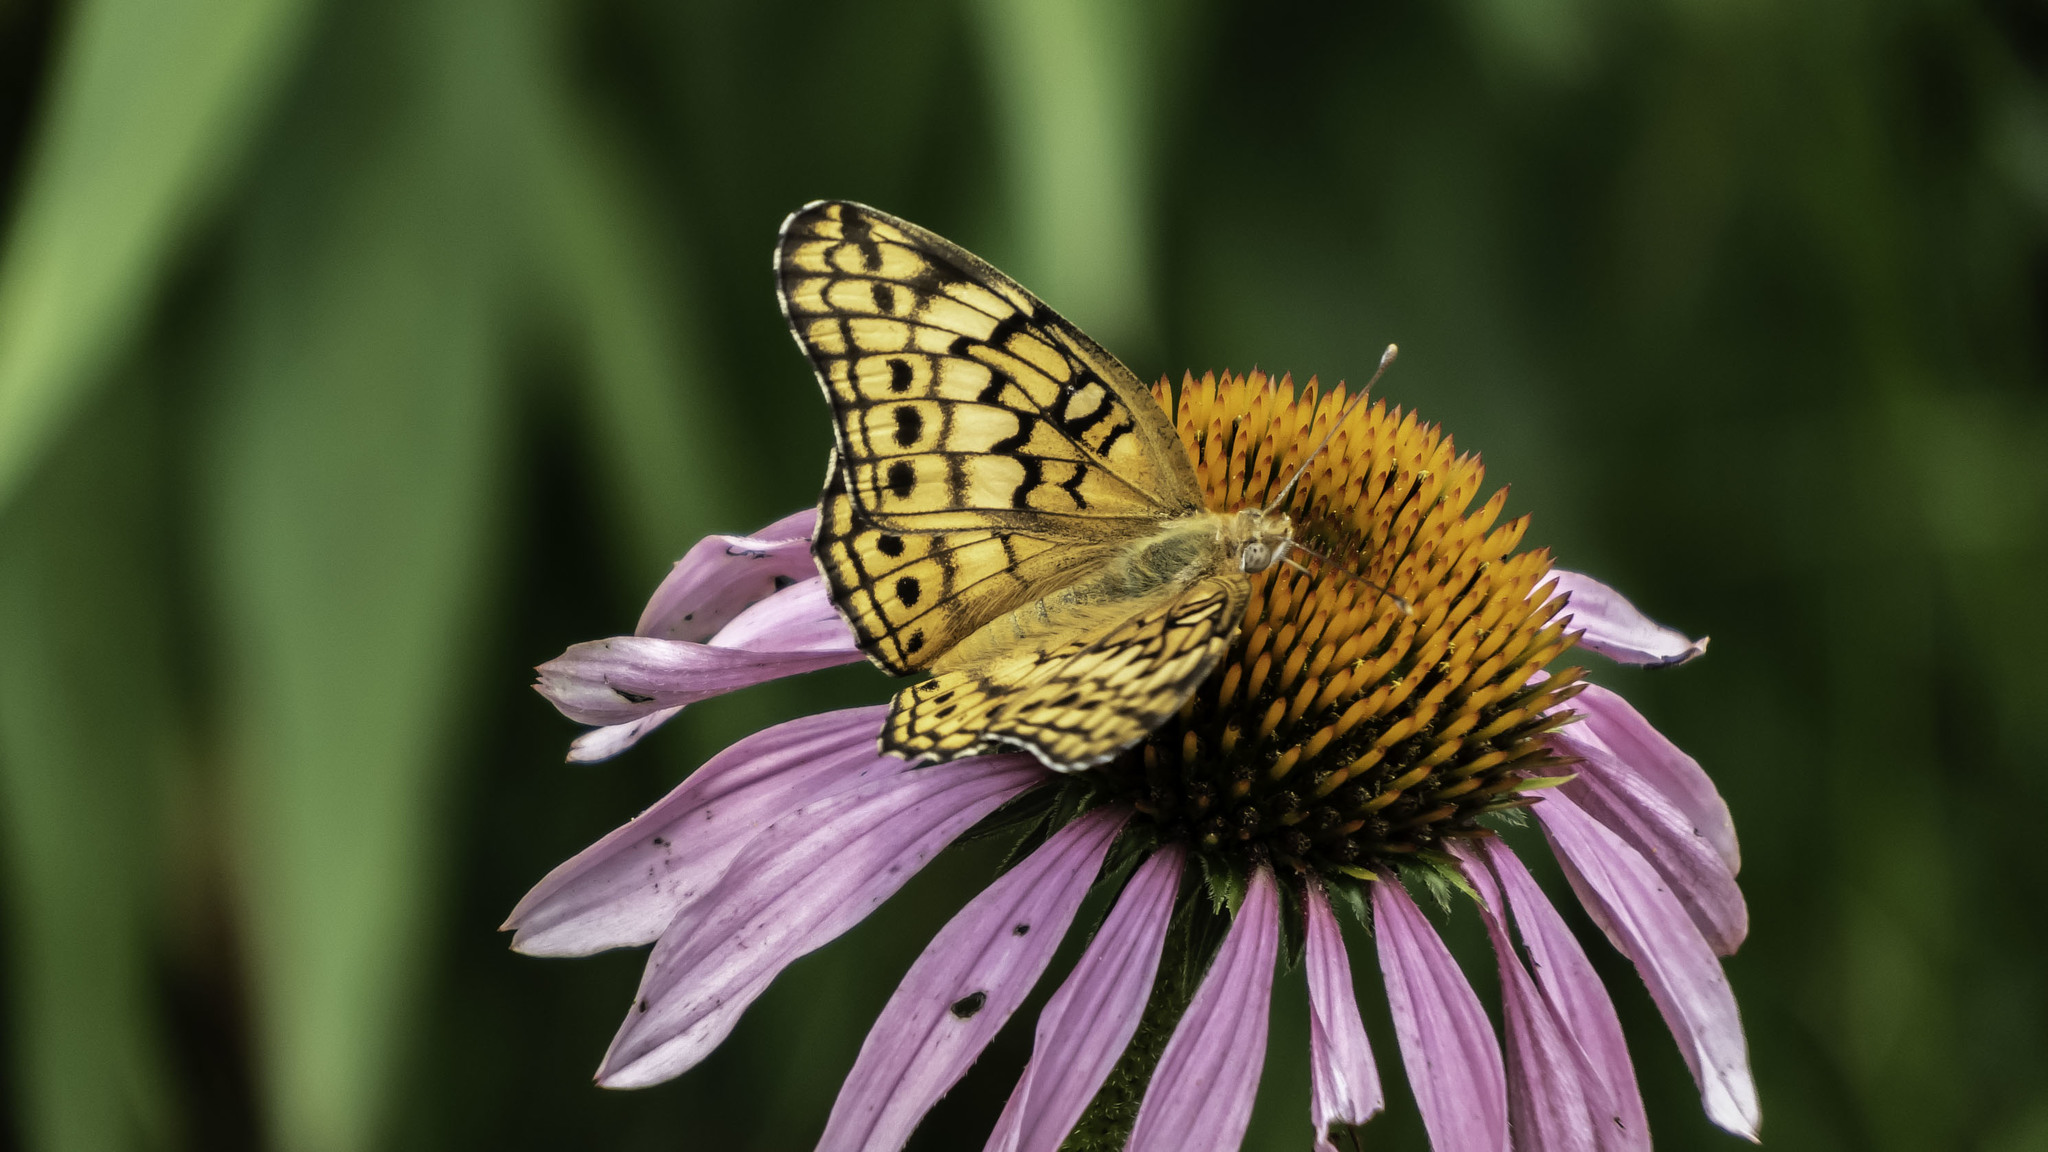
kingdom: Animalia
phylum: Arthropoda
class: Insecta
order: Lepidoptera
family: Nymphalidae
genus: Euptoieta
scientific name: Euptoieta claudia
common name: Variegated fritillary
